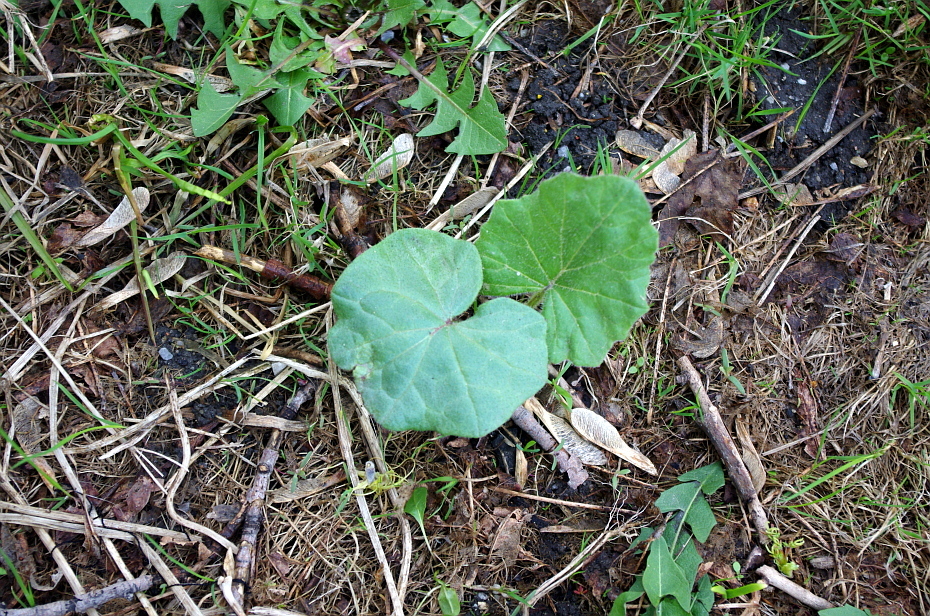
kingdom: Plantae
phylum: Tracheophyta
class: Magnoliopsida
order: Asterales
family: Asteraceae
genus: Tussilago
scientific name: Tussilago farfara
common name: Coltsfoot
